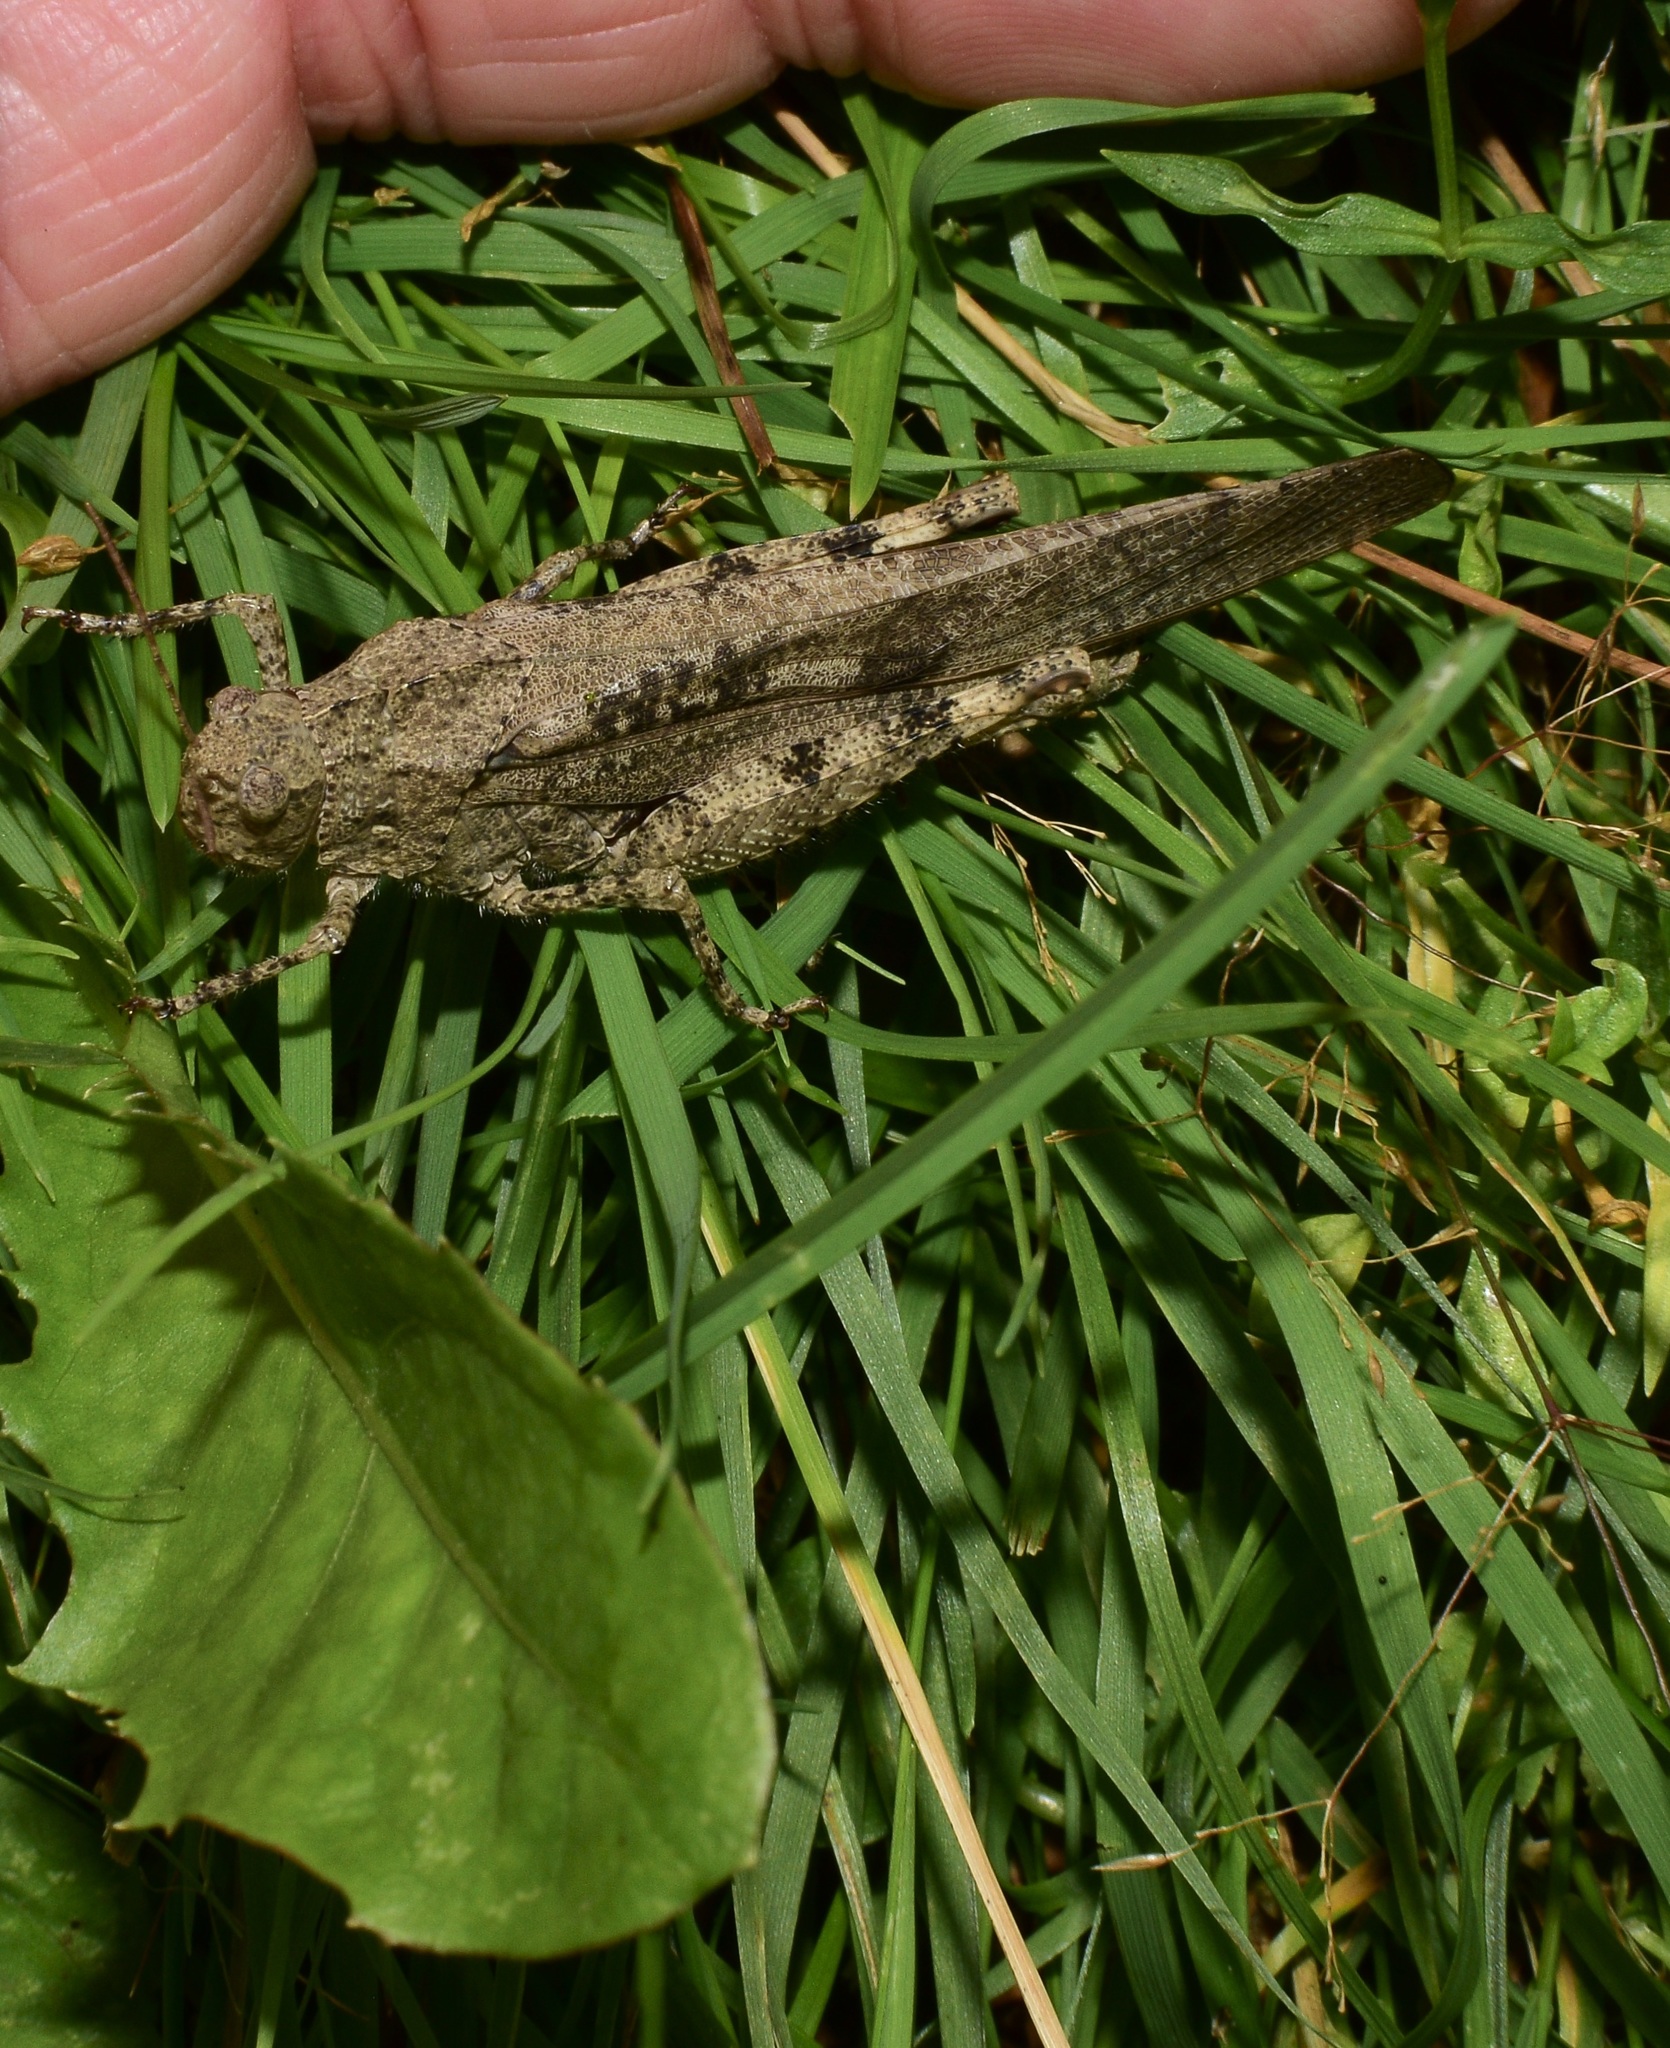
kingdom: Animalia
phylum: Arthropoda
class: Insecta
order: Orthoptera
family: Acrididae
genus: Dissosteira
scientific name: Dissosteira carolina
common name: Carolina grasshopper
